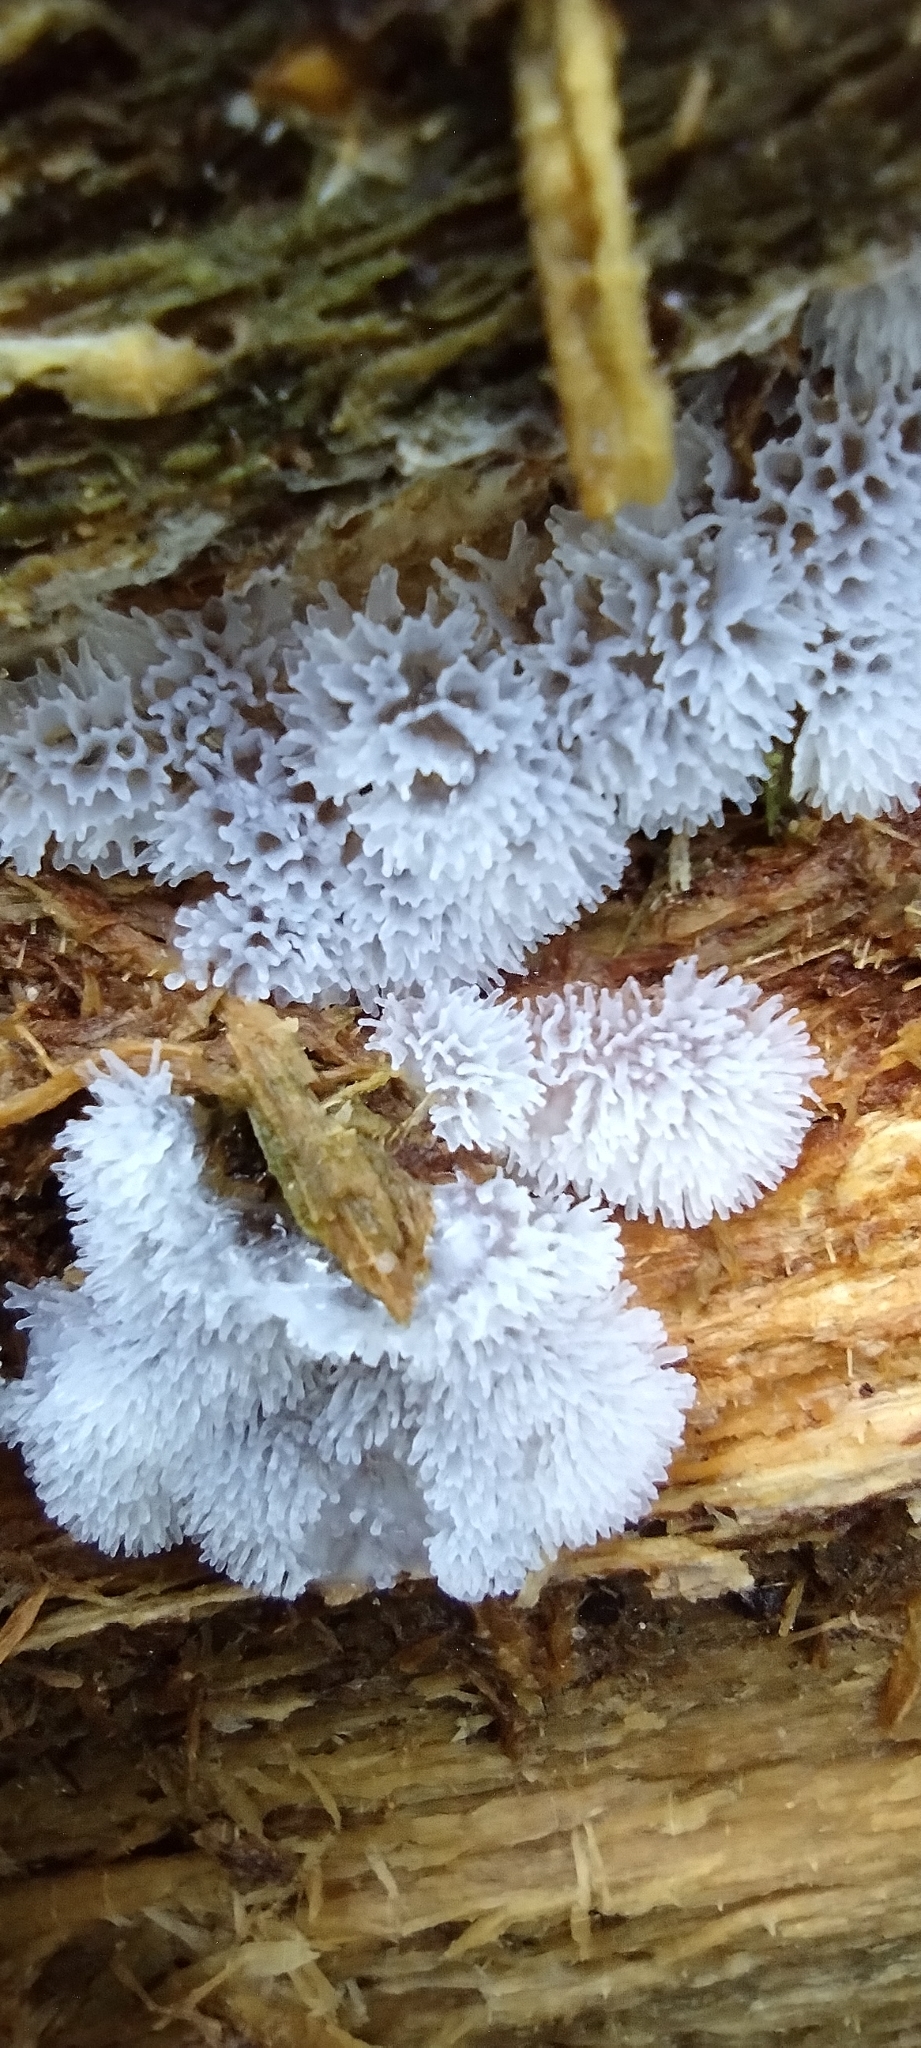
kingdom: Protozoa
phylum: Mycetozoa
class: Protosteliomycetes
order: Ceratiomyxales
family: Ceratiomyxaceae
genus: Ceratiomyxa
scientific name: Ceratiomyxa fruticulosa
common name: Honeycomb coral slime mold
